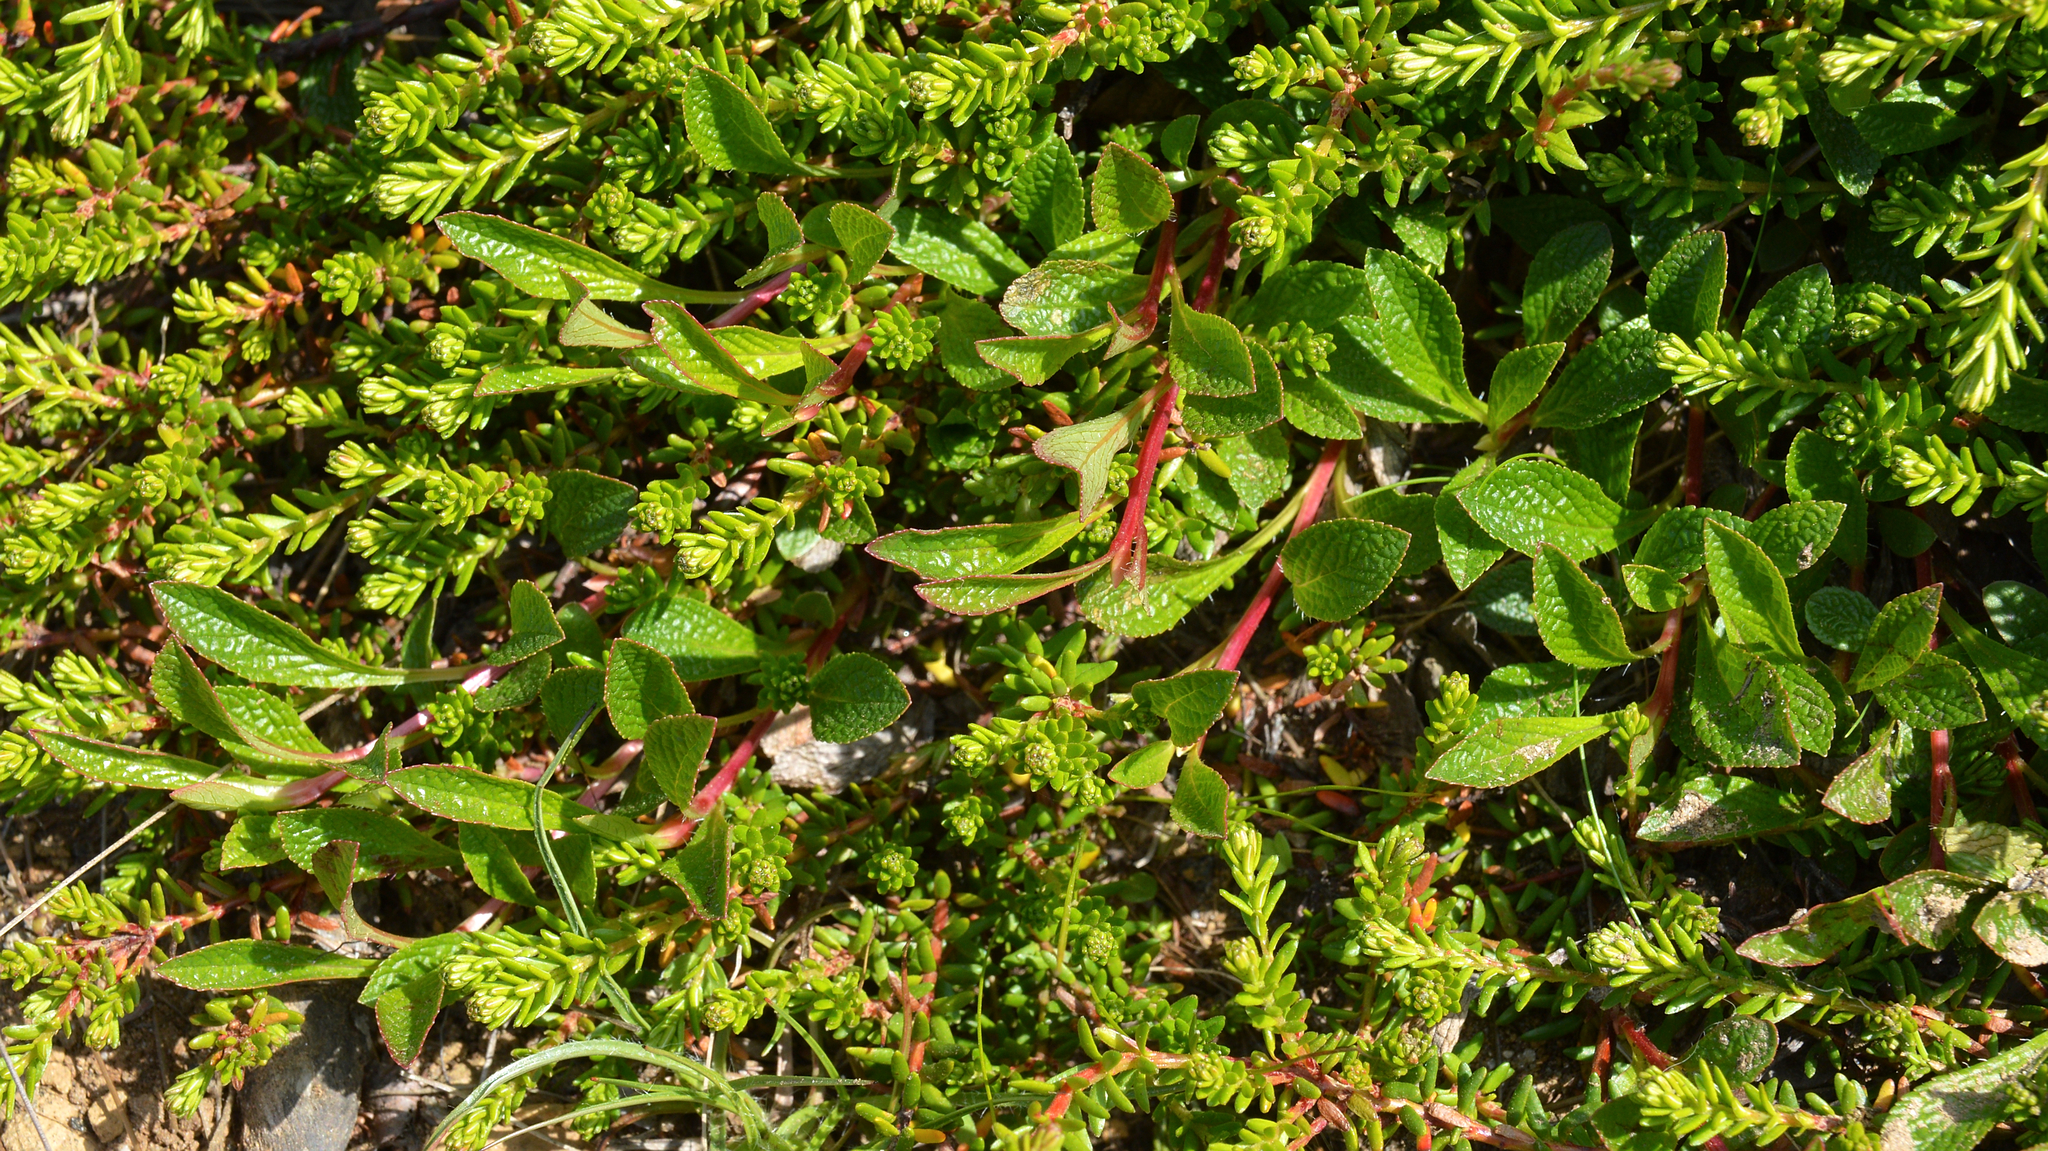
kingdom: Plantae
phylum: Tracheophyta
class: Magnoliopsida
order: Ericales
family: Ericaceae
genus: Arctostaphylos
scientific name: Arctostaphylos alpinus
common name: Alpine bearberry
